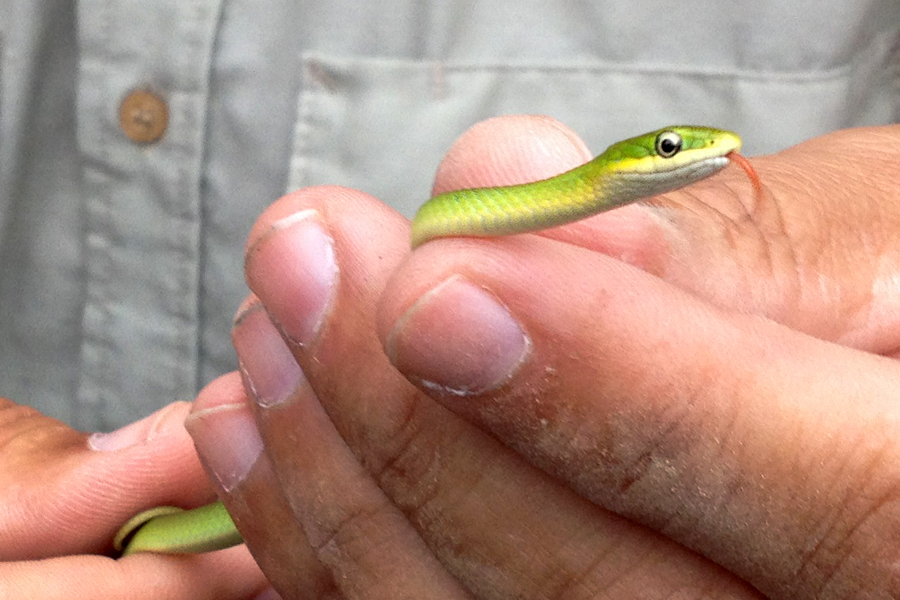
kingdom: Animalia
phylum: Chordata
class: Squamata
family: Colubridae
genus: Opheodrys
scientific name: Opheodrys aestivus
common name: Rough greensnake
